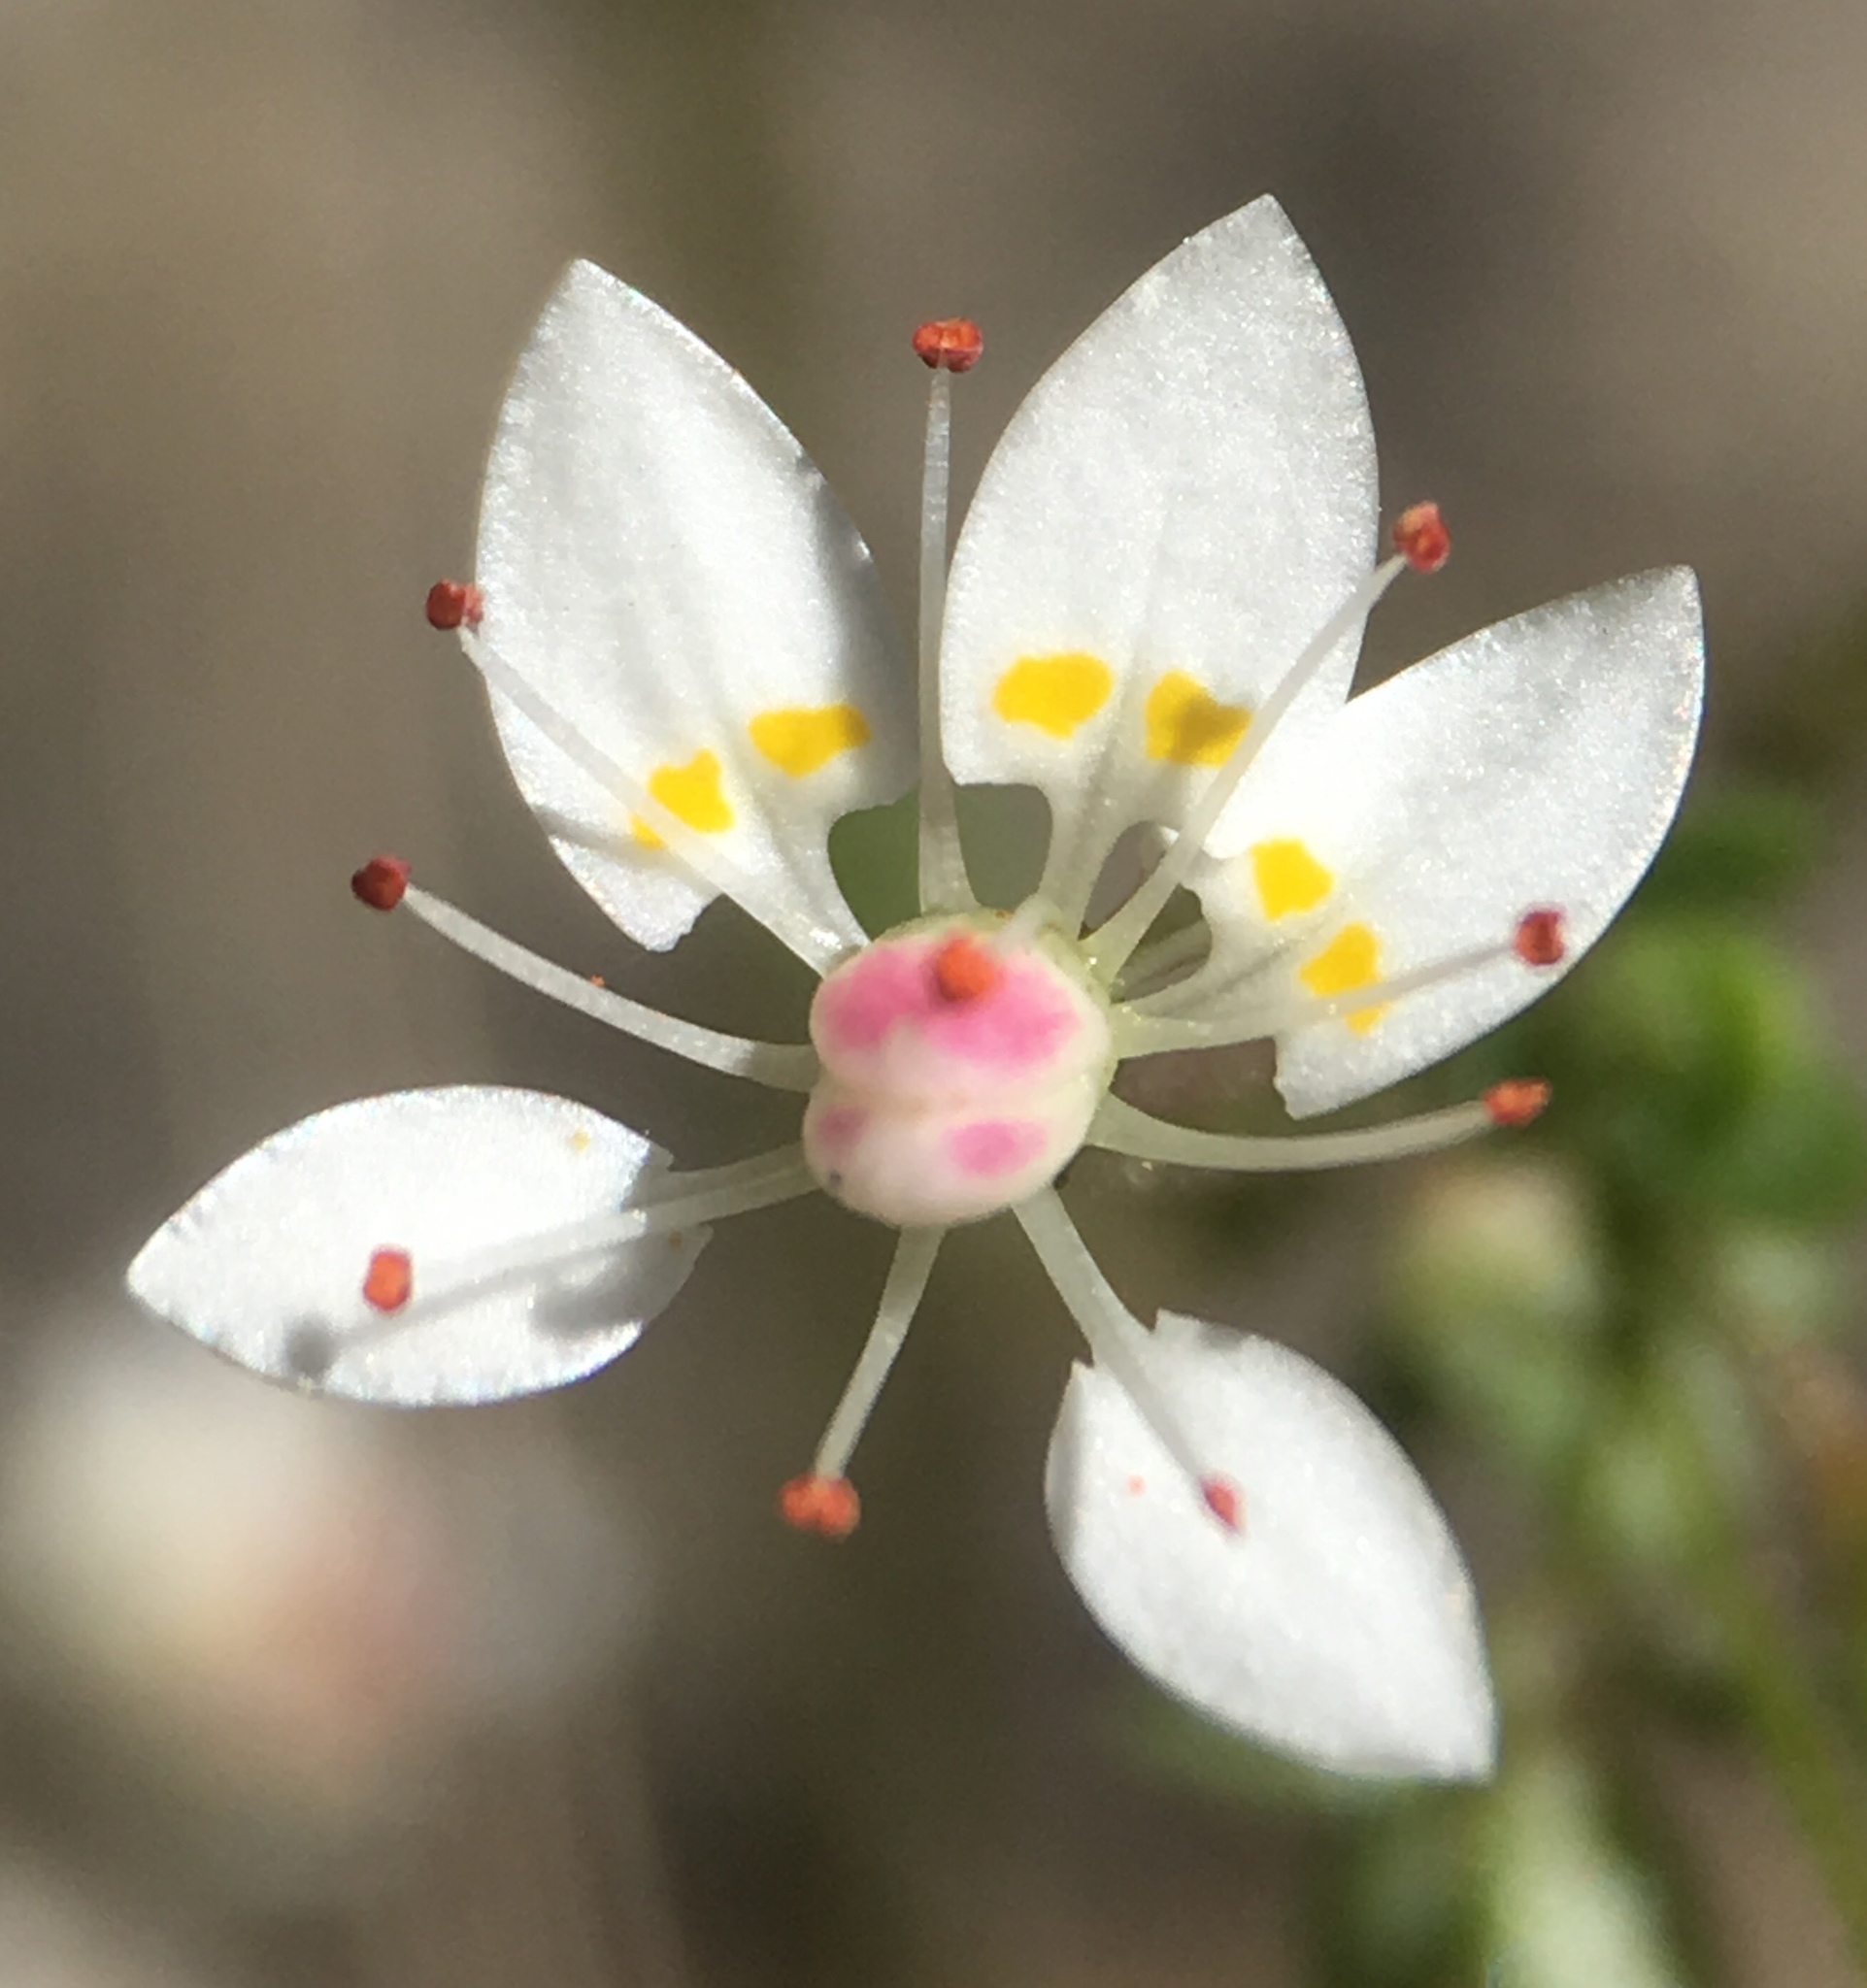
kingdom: Plantae
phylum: Tracheophyta
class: Magnoliopsida
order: Saxifragales
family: Saxifragaceae
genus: Micranthes
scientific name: Micranthes ferruginea
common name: Rusty saxifrage
